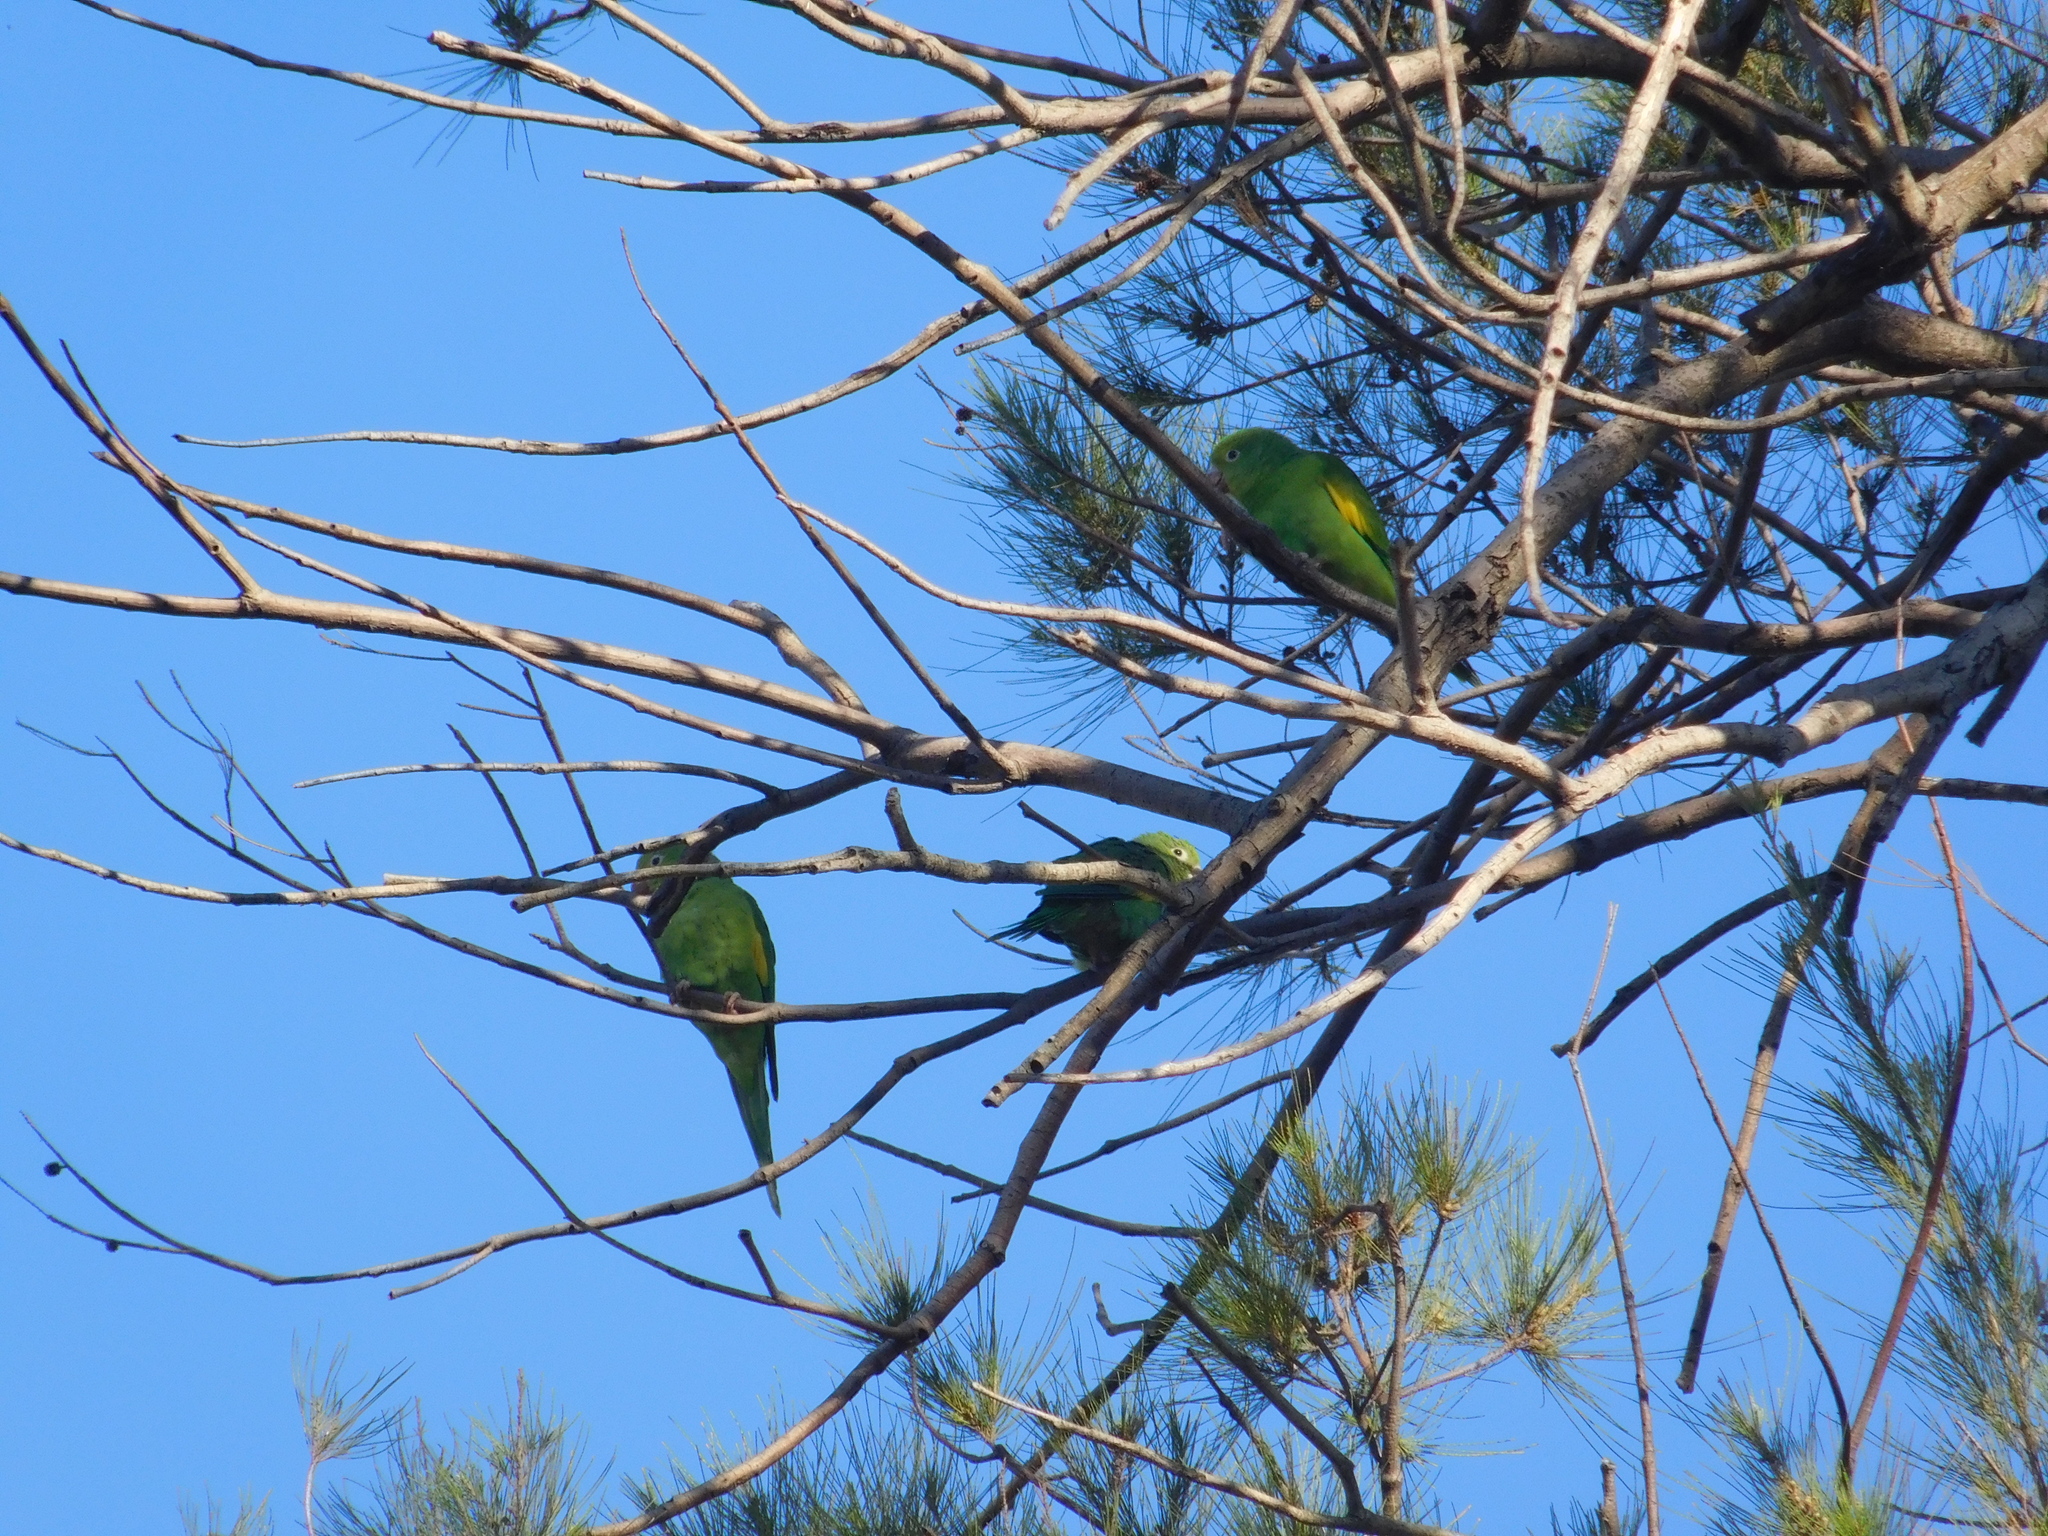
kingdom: Animalia
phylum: Chordata
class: Aves
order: Psittaciformes
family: Psittacidae
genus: Brotogeris
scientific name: Brotogeris chiriri
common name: Yellow-chevroned parakeet
